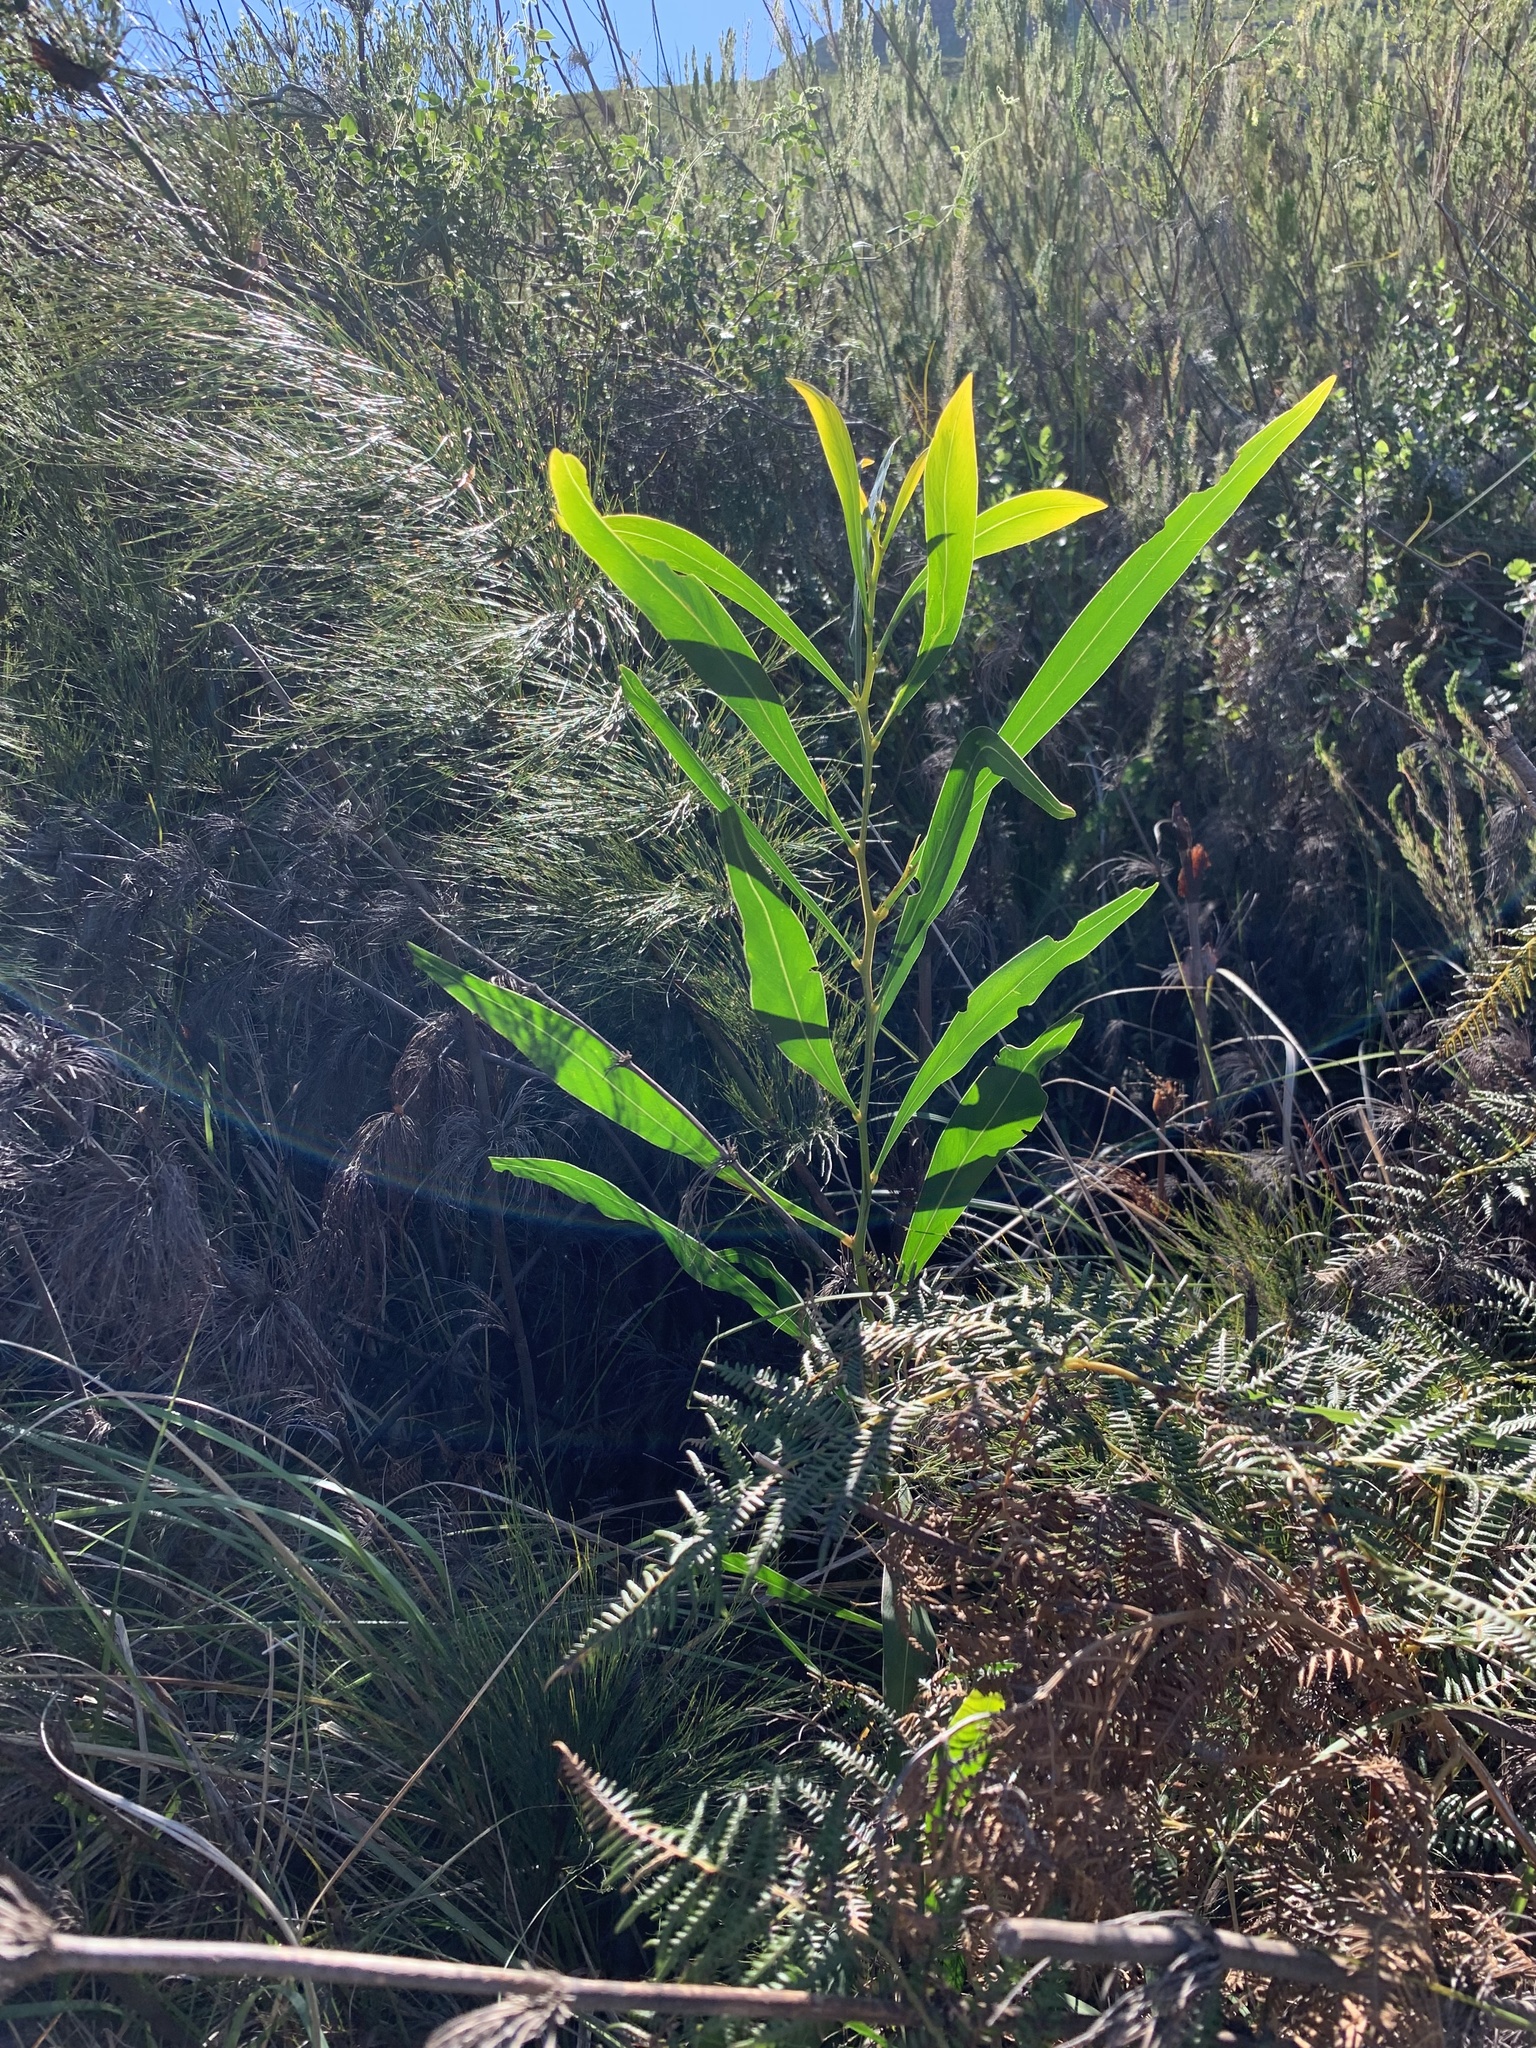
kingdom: Plantae
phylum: Tracheophyta
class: Magnoliopsida
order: Fabales
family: Fabaceae
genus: Acacia
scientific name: Acacia saligna
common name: Orange wattle
